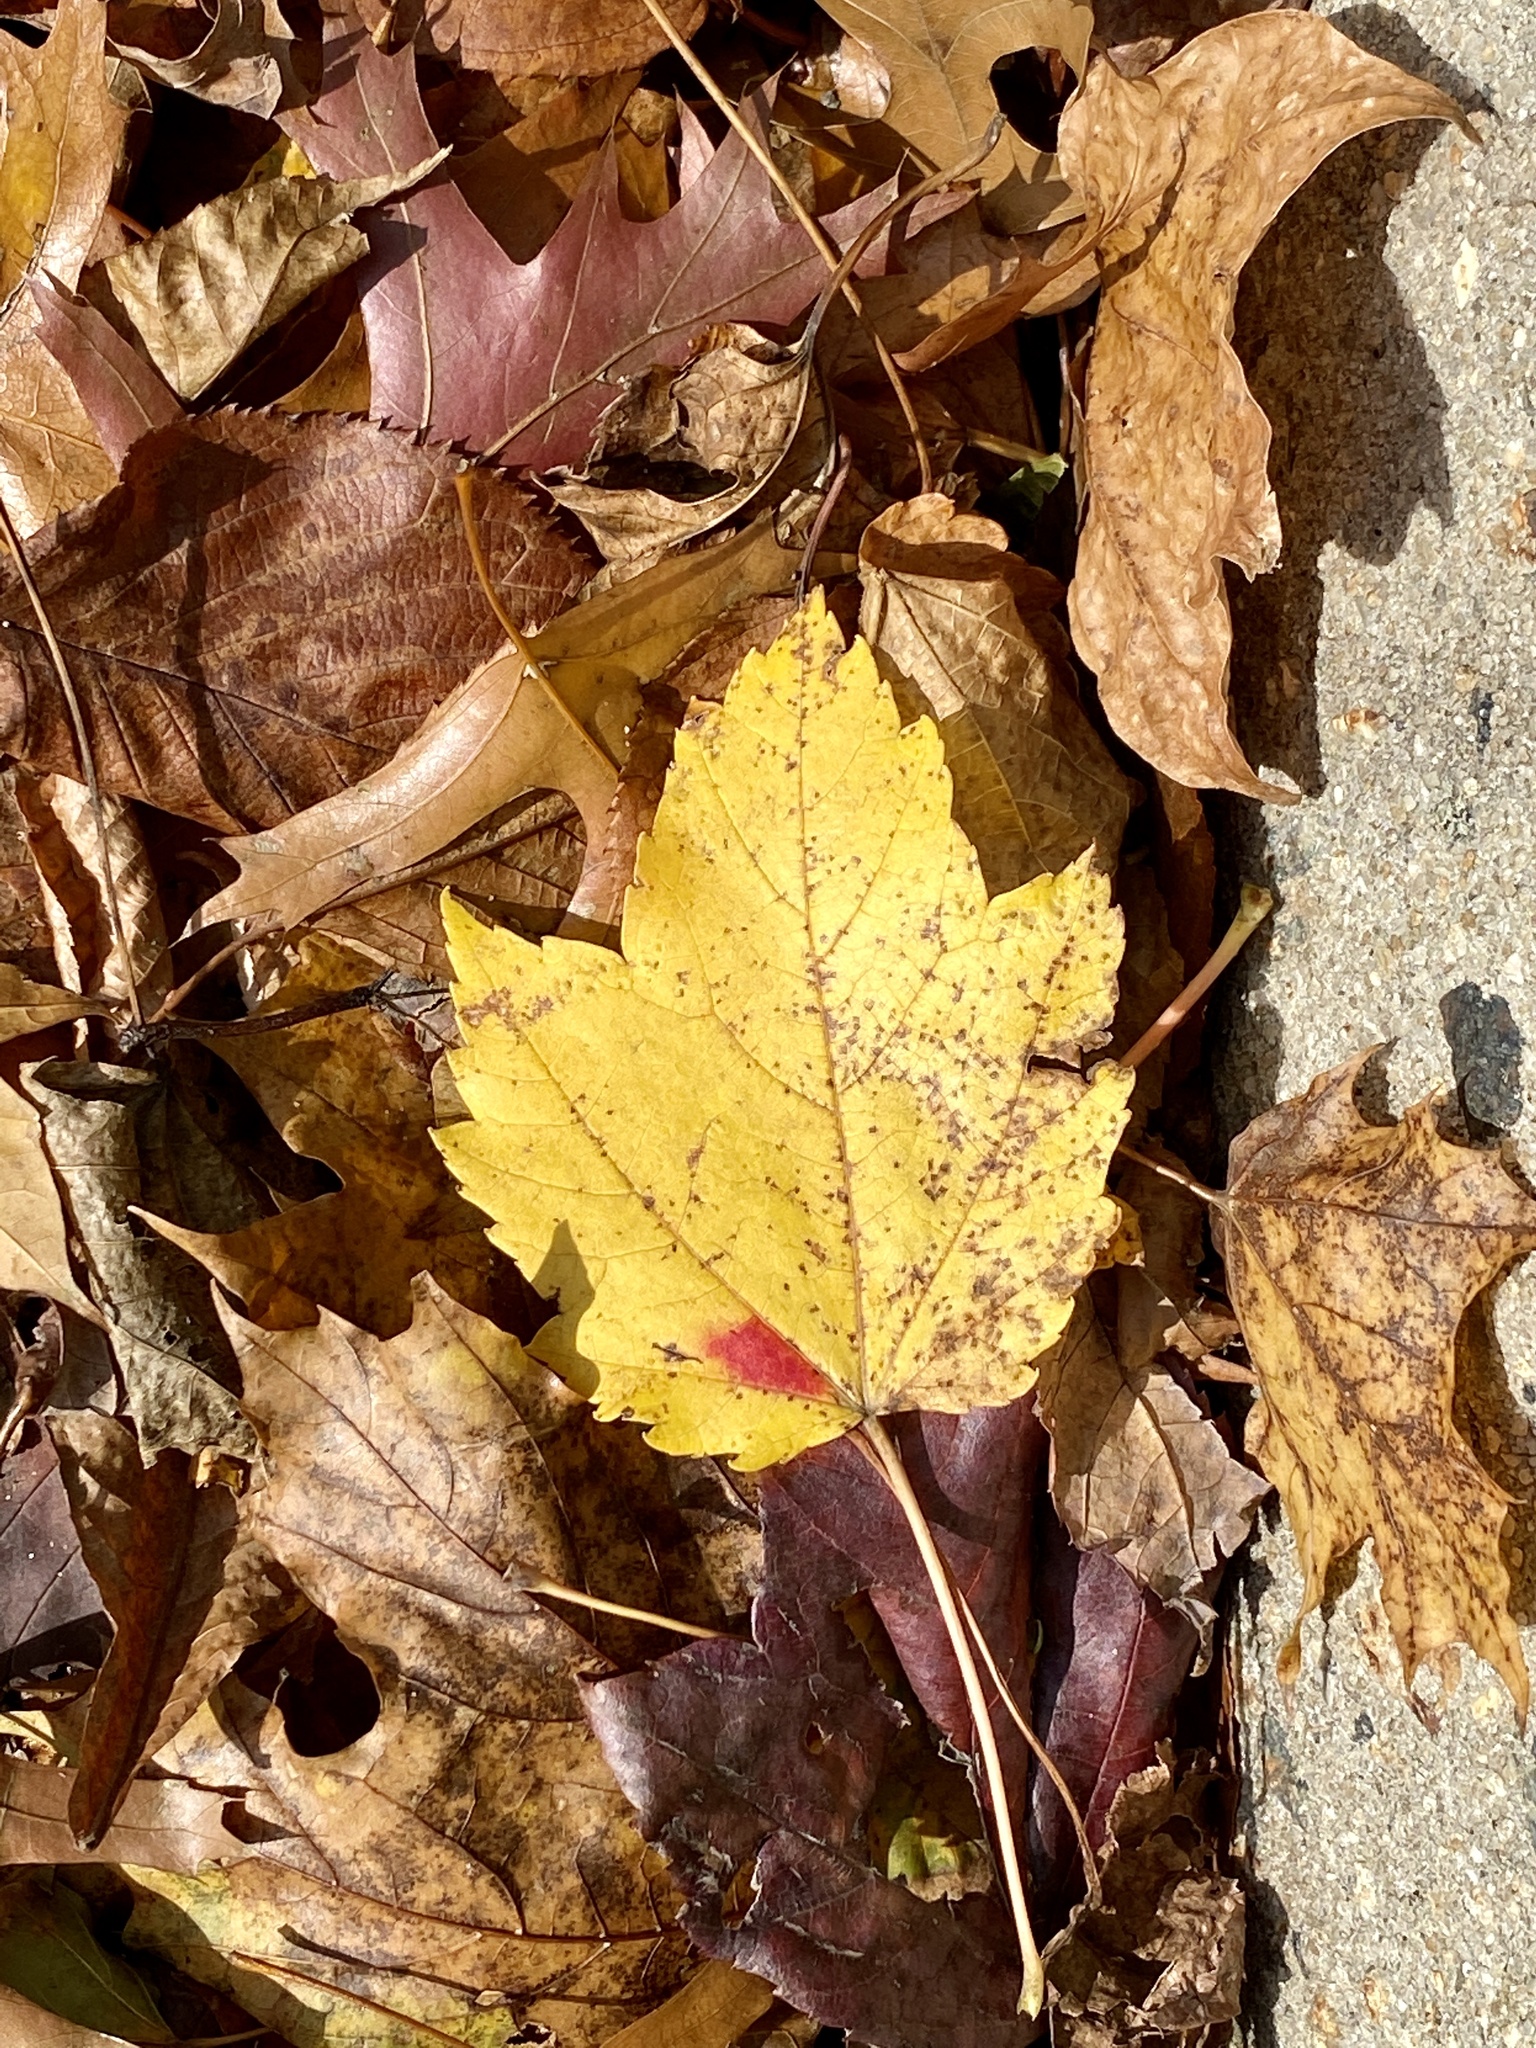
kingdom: Plantae
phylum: Tracheophyta
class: Magnoliopsida
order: Sapindales
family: Sapindaceae
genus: Acer
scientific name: Acer rubrum
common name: Red maple
